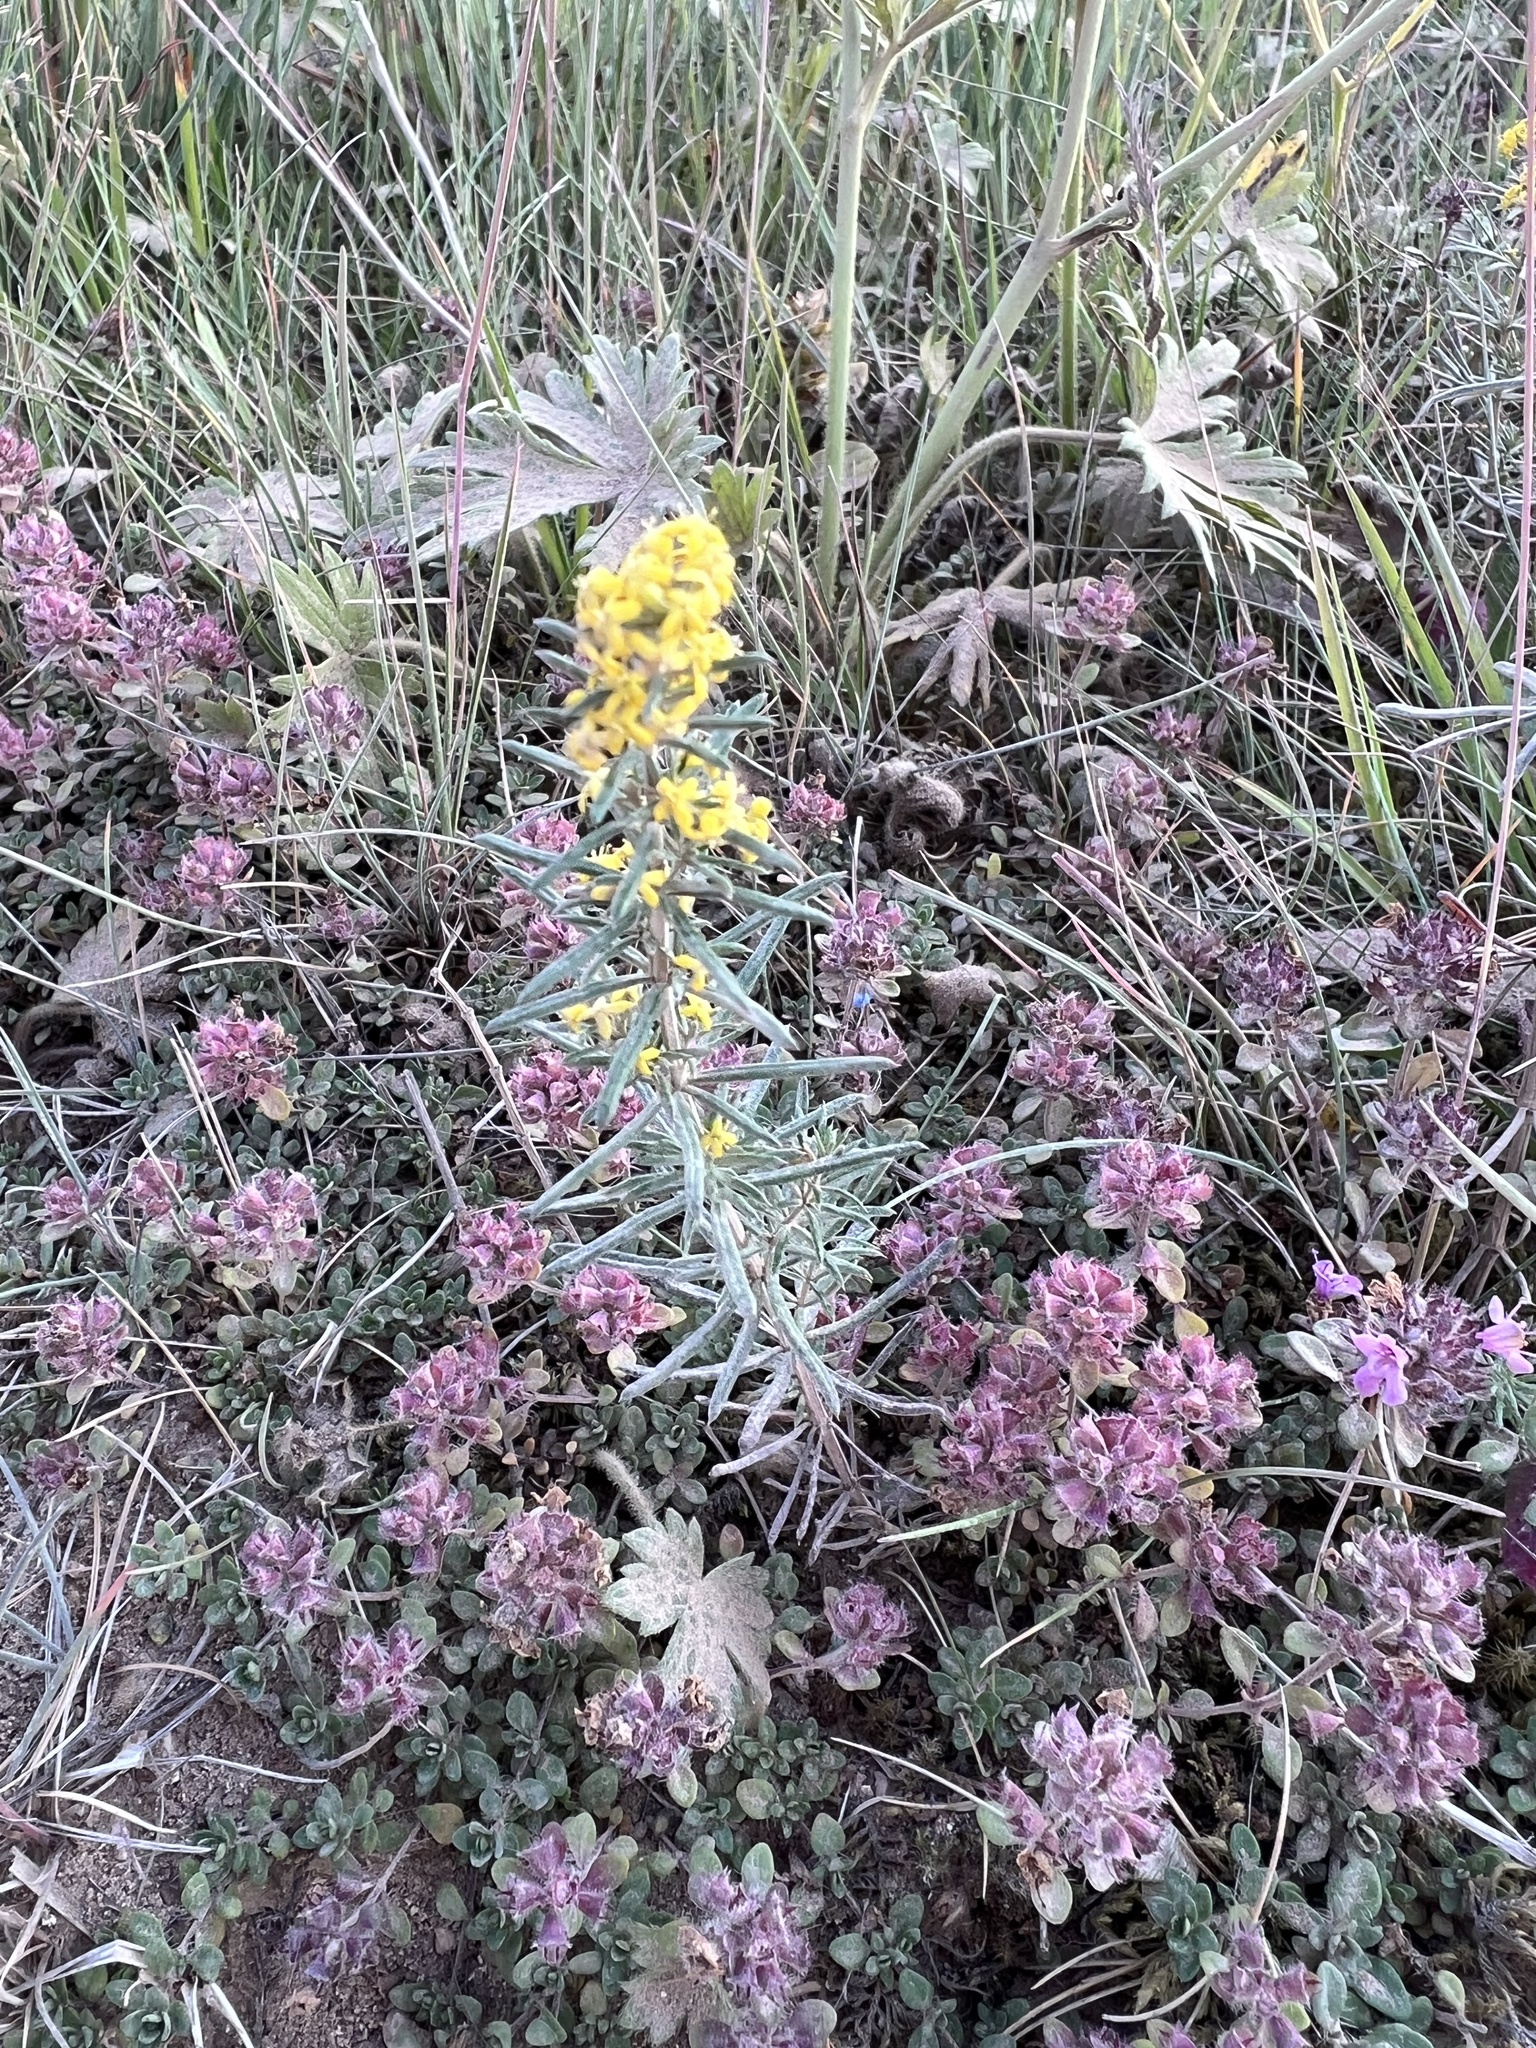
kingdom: Plantae
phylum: Tracheophyta
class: Magnoliopsida
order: Gentianales
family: Rubiaceae
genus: Galium
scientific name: Galium verum
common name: Lady's bedstraw
